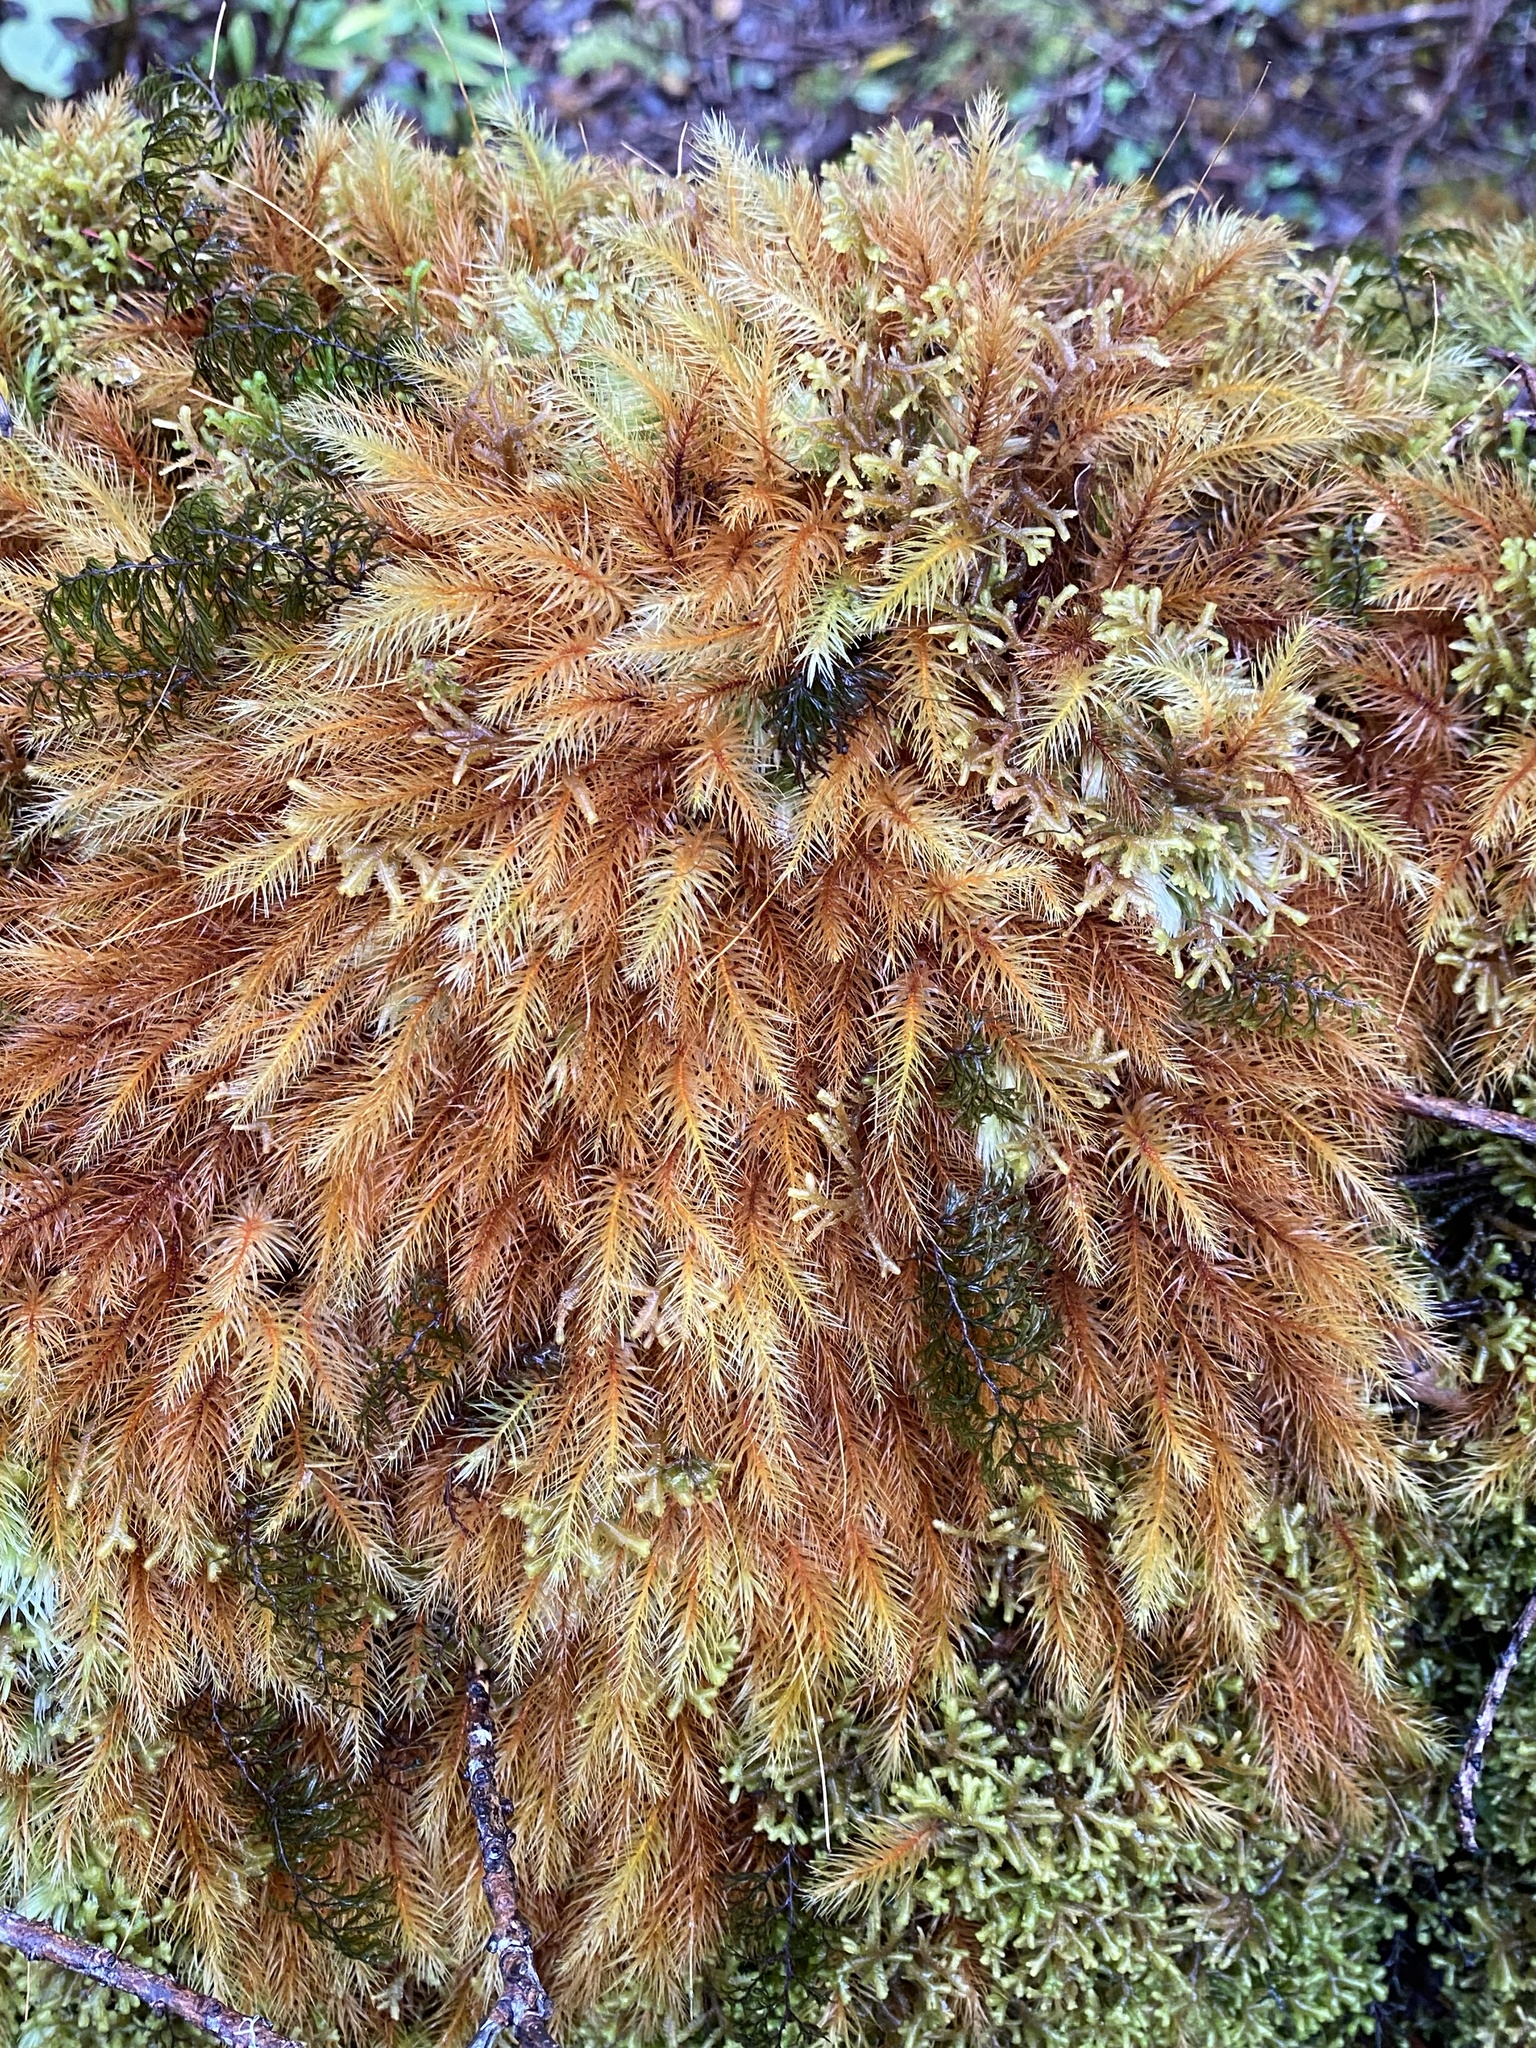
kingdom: Plantae
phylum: Bryophyta
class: Bryopsida
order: Rhizogoniales
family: Calomniaceae
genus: Pyrrhobryum
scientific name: Pyrrhobryum spiniforme
